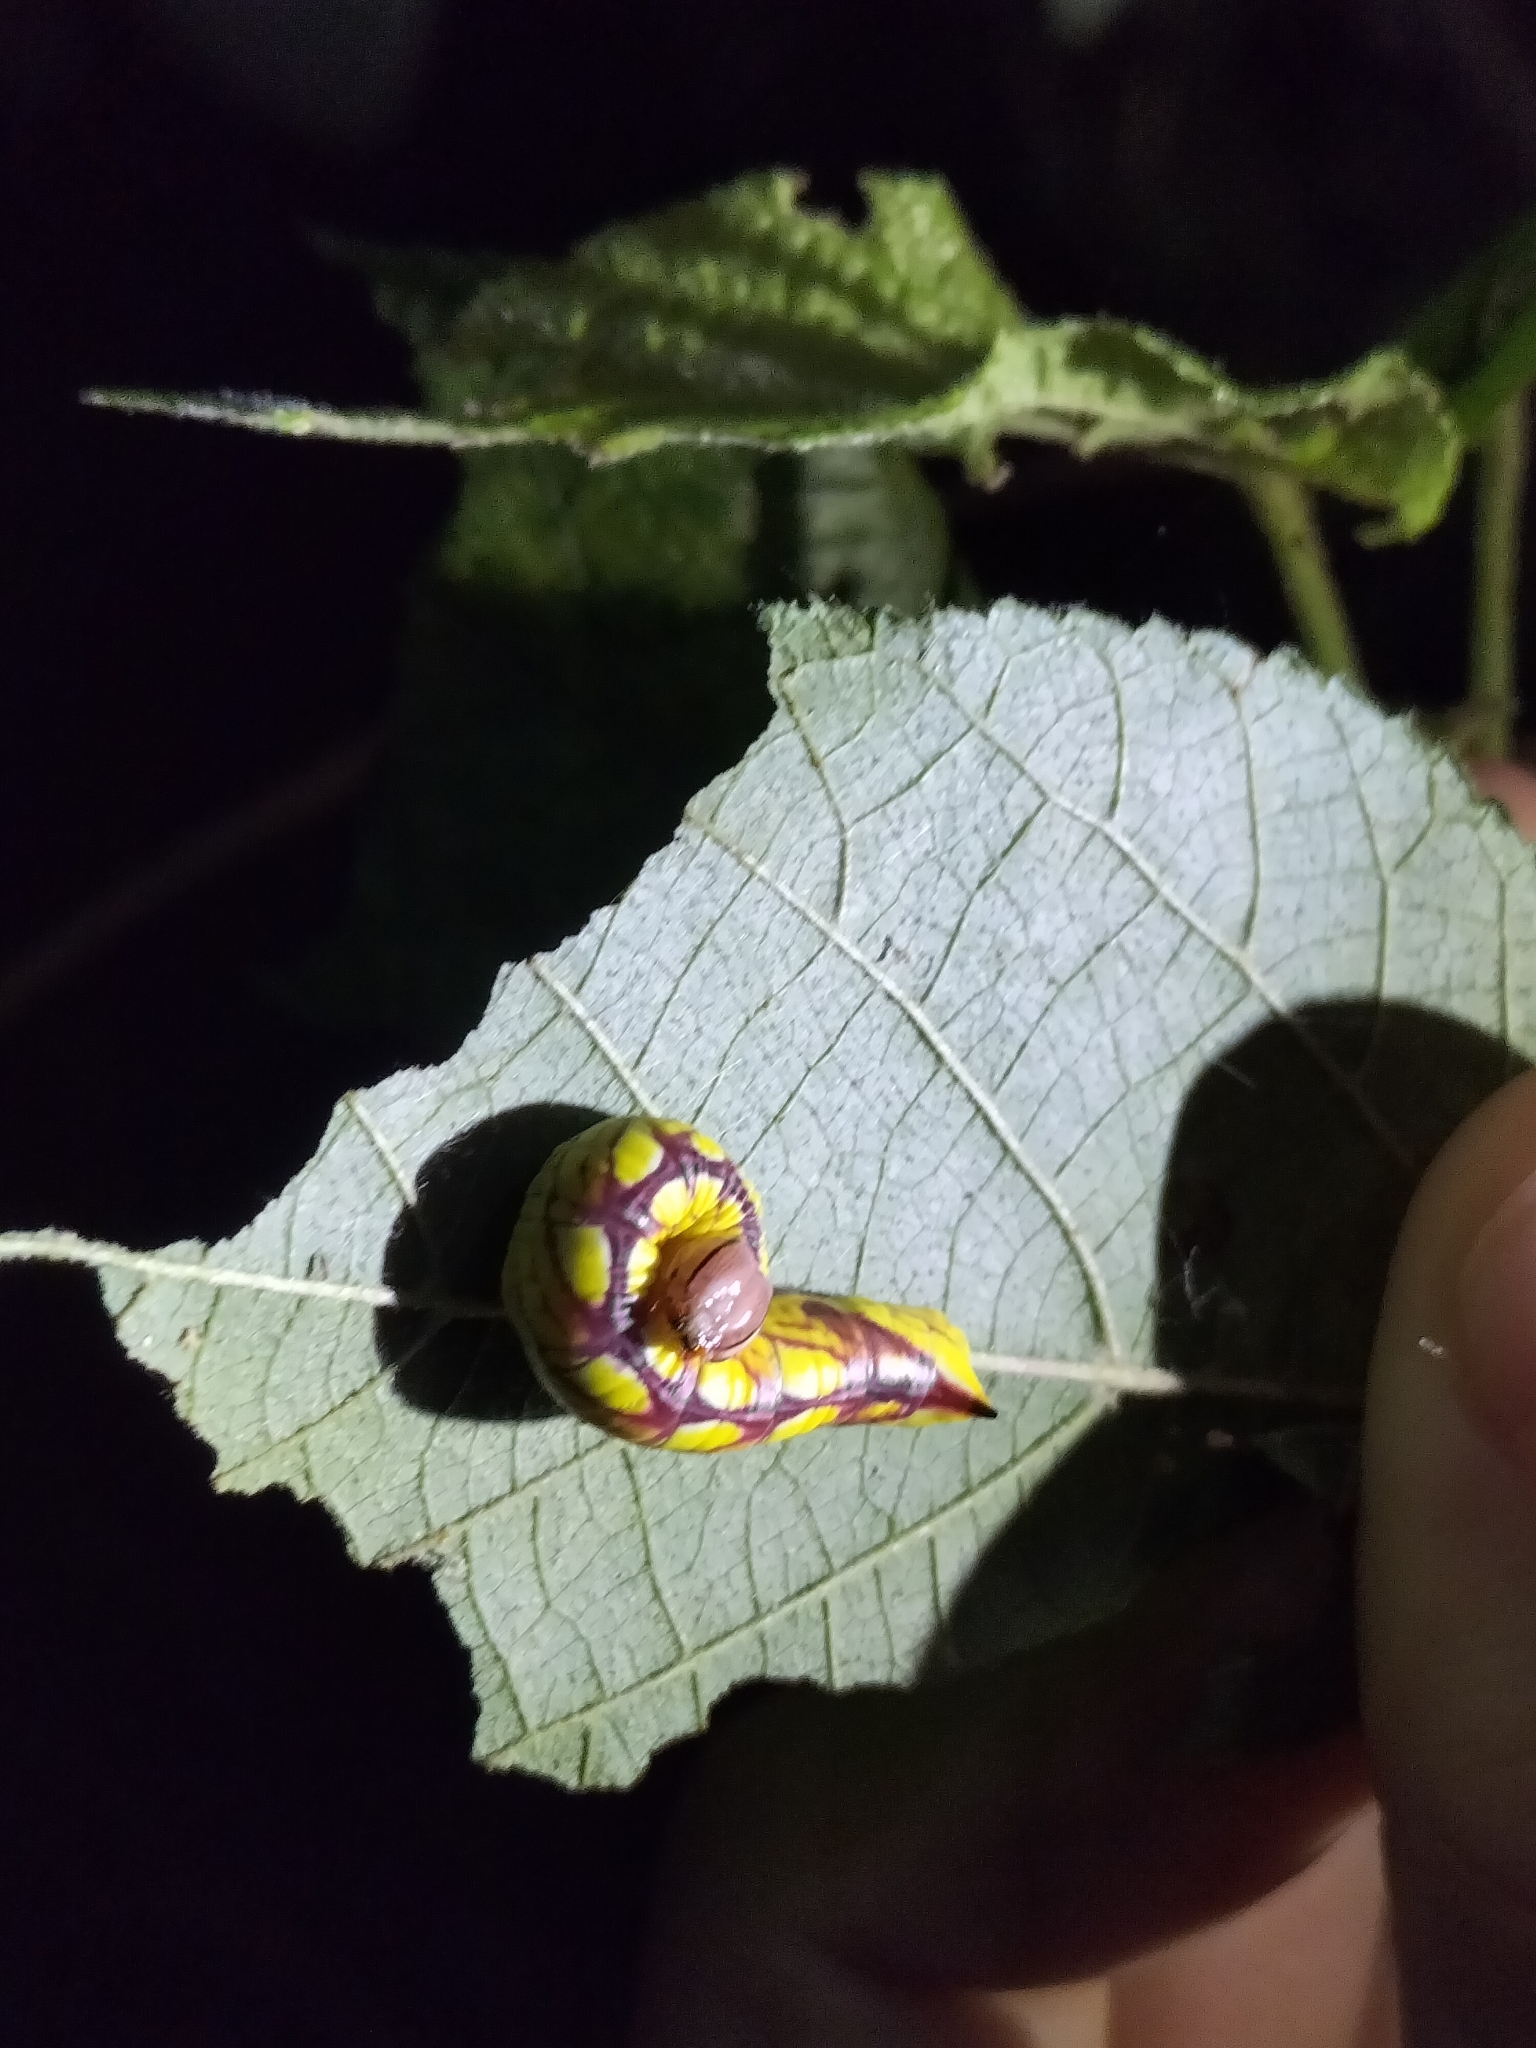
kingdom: Animalia
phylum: Arthropoda
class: Insecta
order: Lepidoptera
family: Notodontidae
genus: Chadisra
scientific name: Chadisra Antithemerastis acrobela
